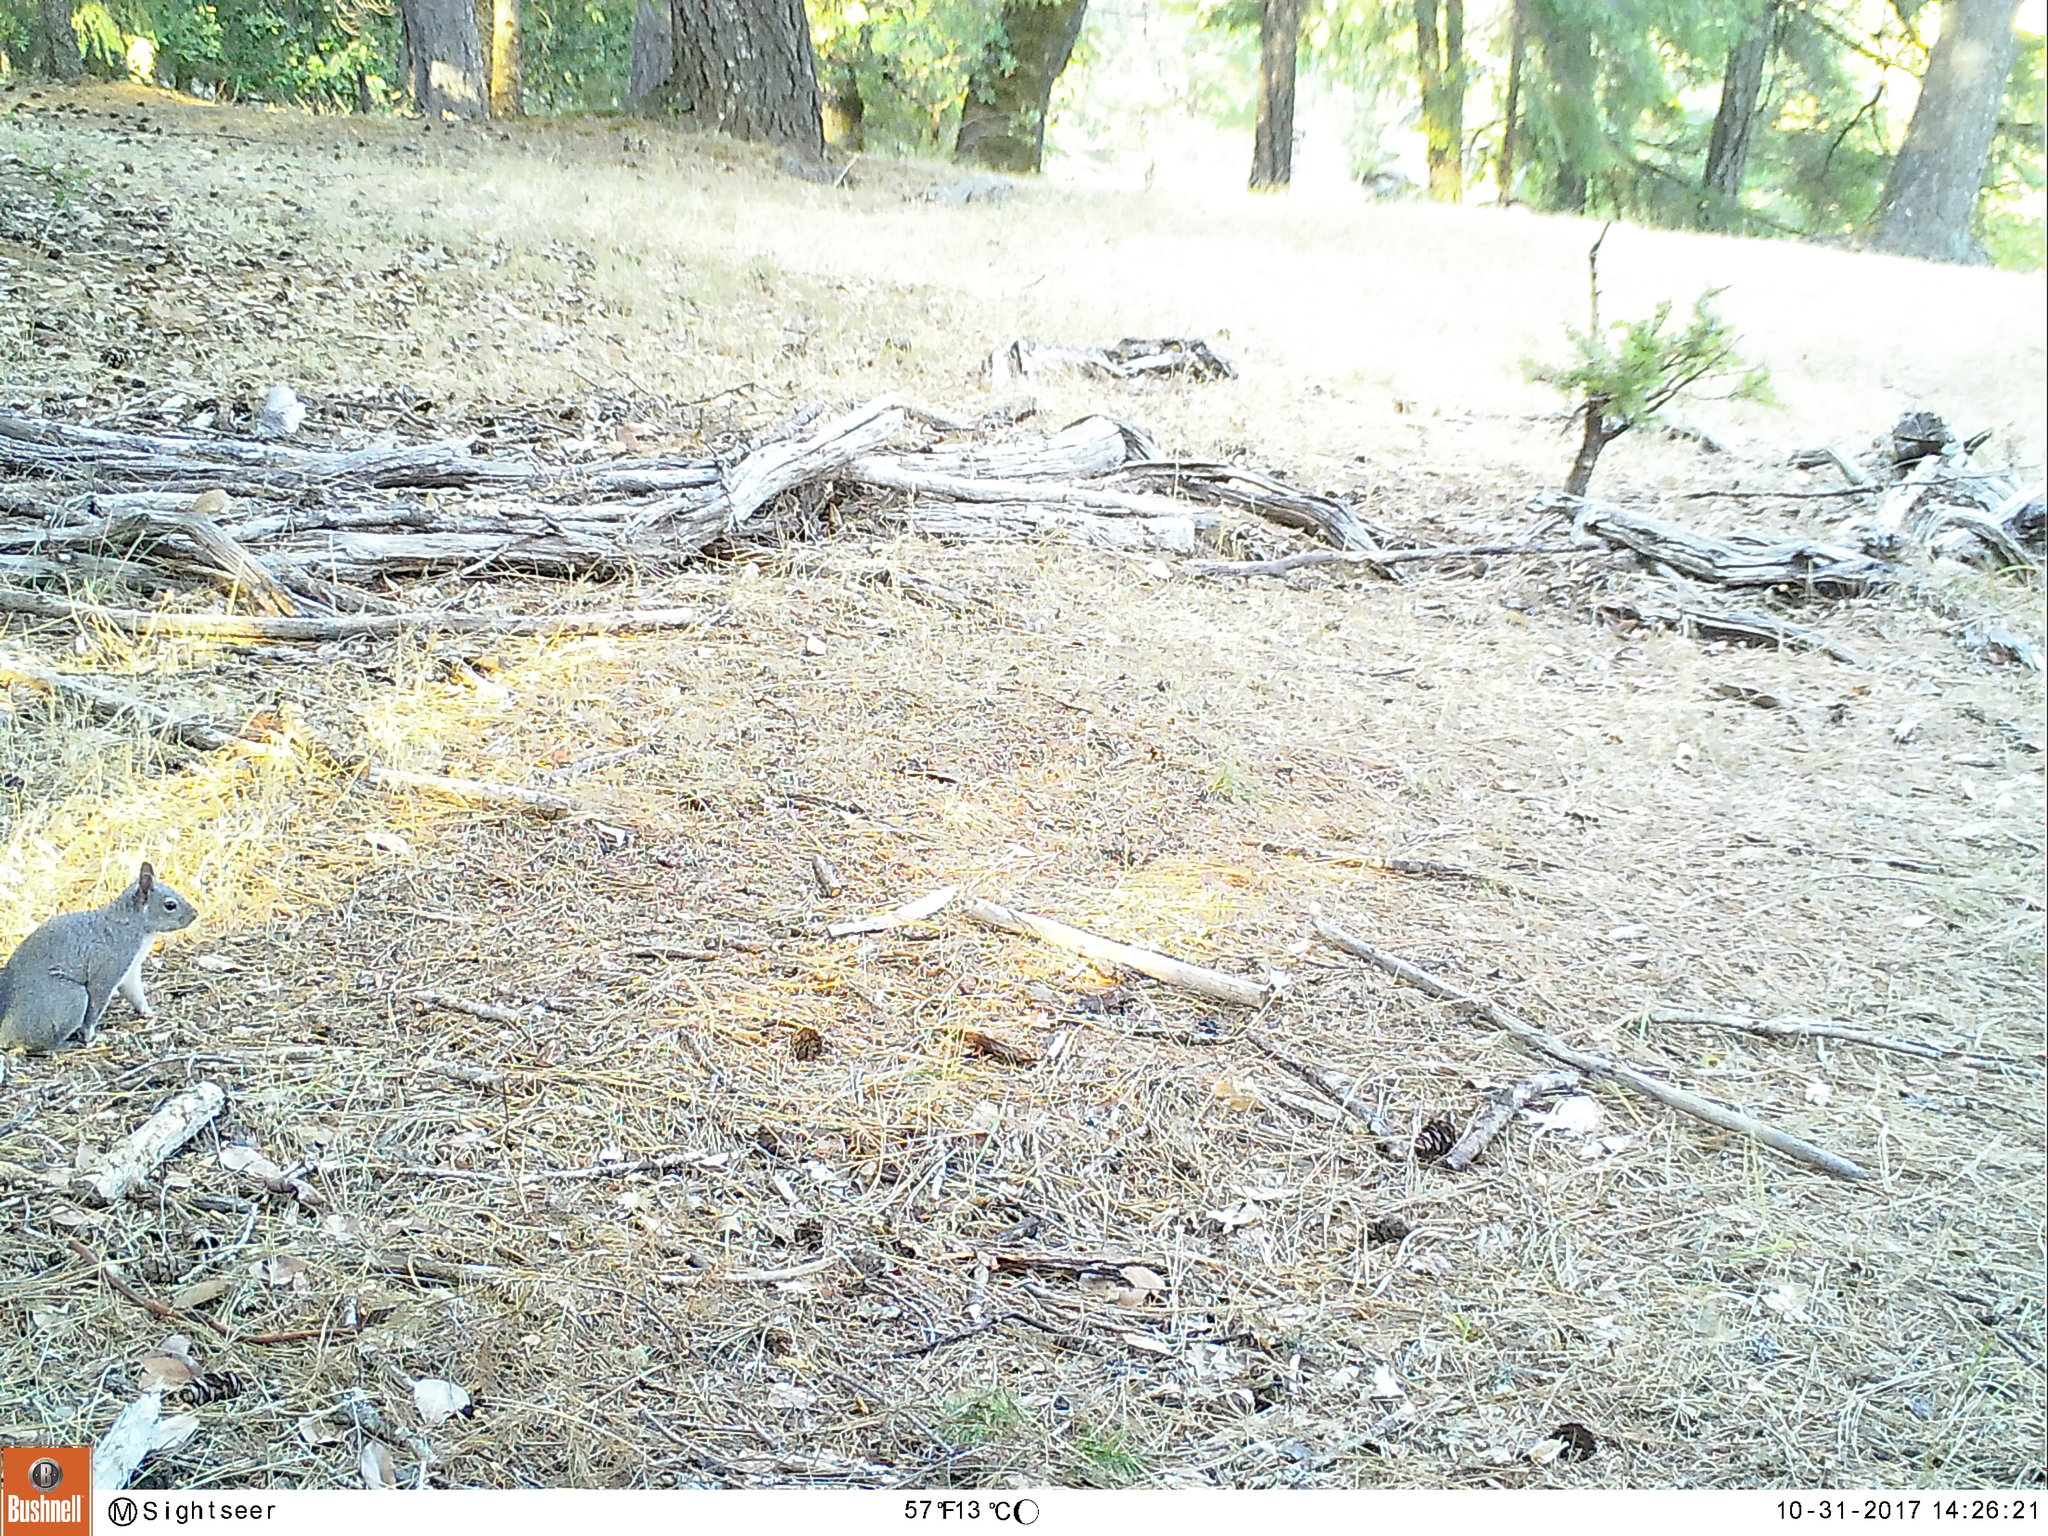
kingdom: Animalia
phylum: Chordata
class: Mammalia
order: Rodentia
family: Sciuridae
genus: Sciurus
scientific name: Sciurus griseus
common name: Western gray squirrel
